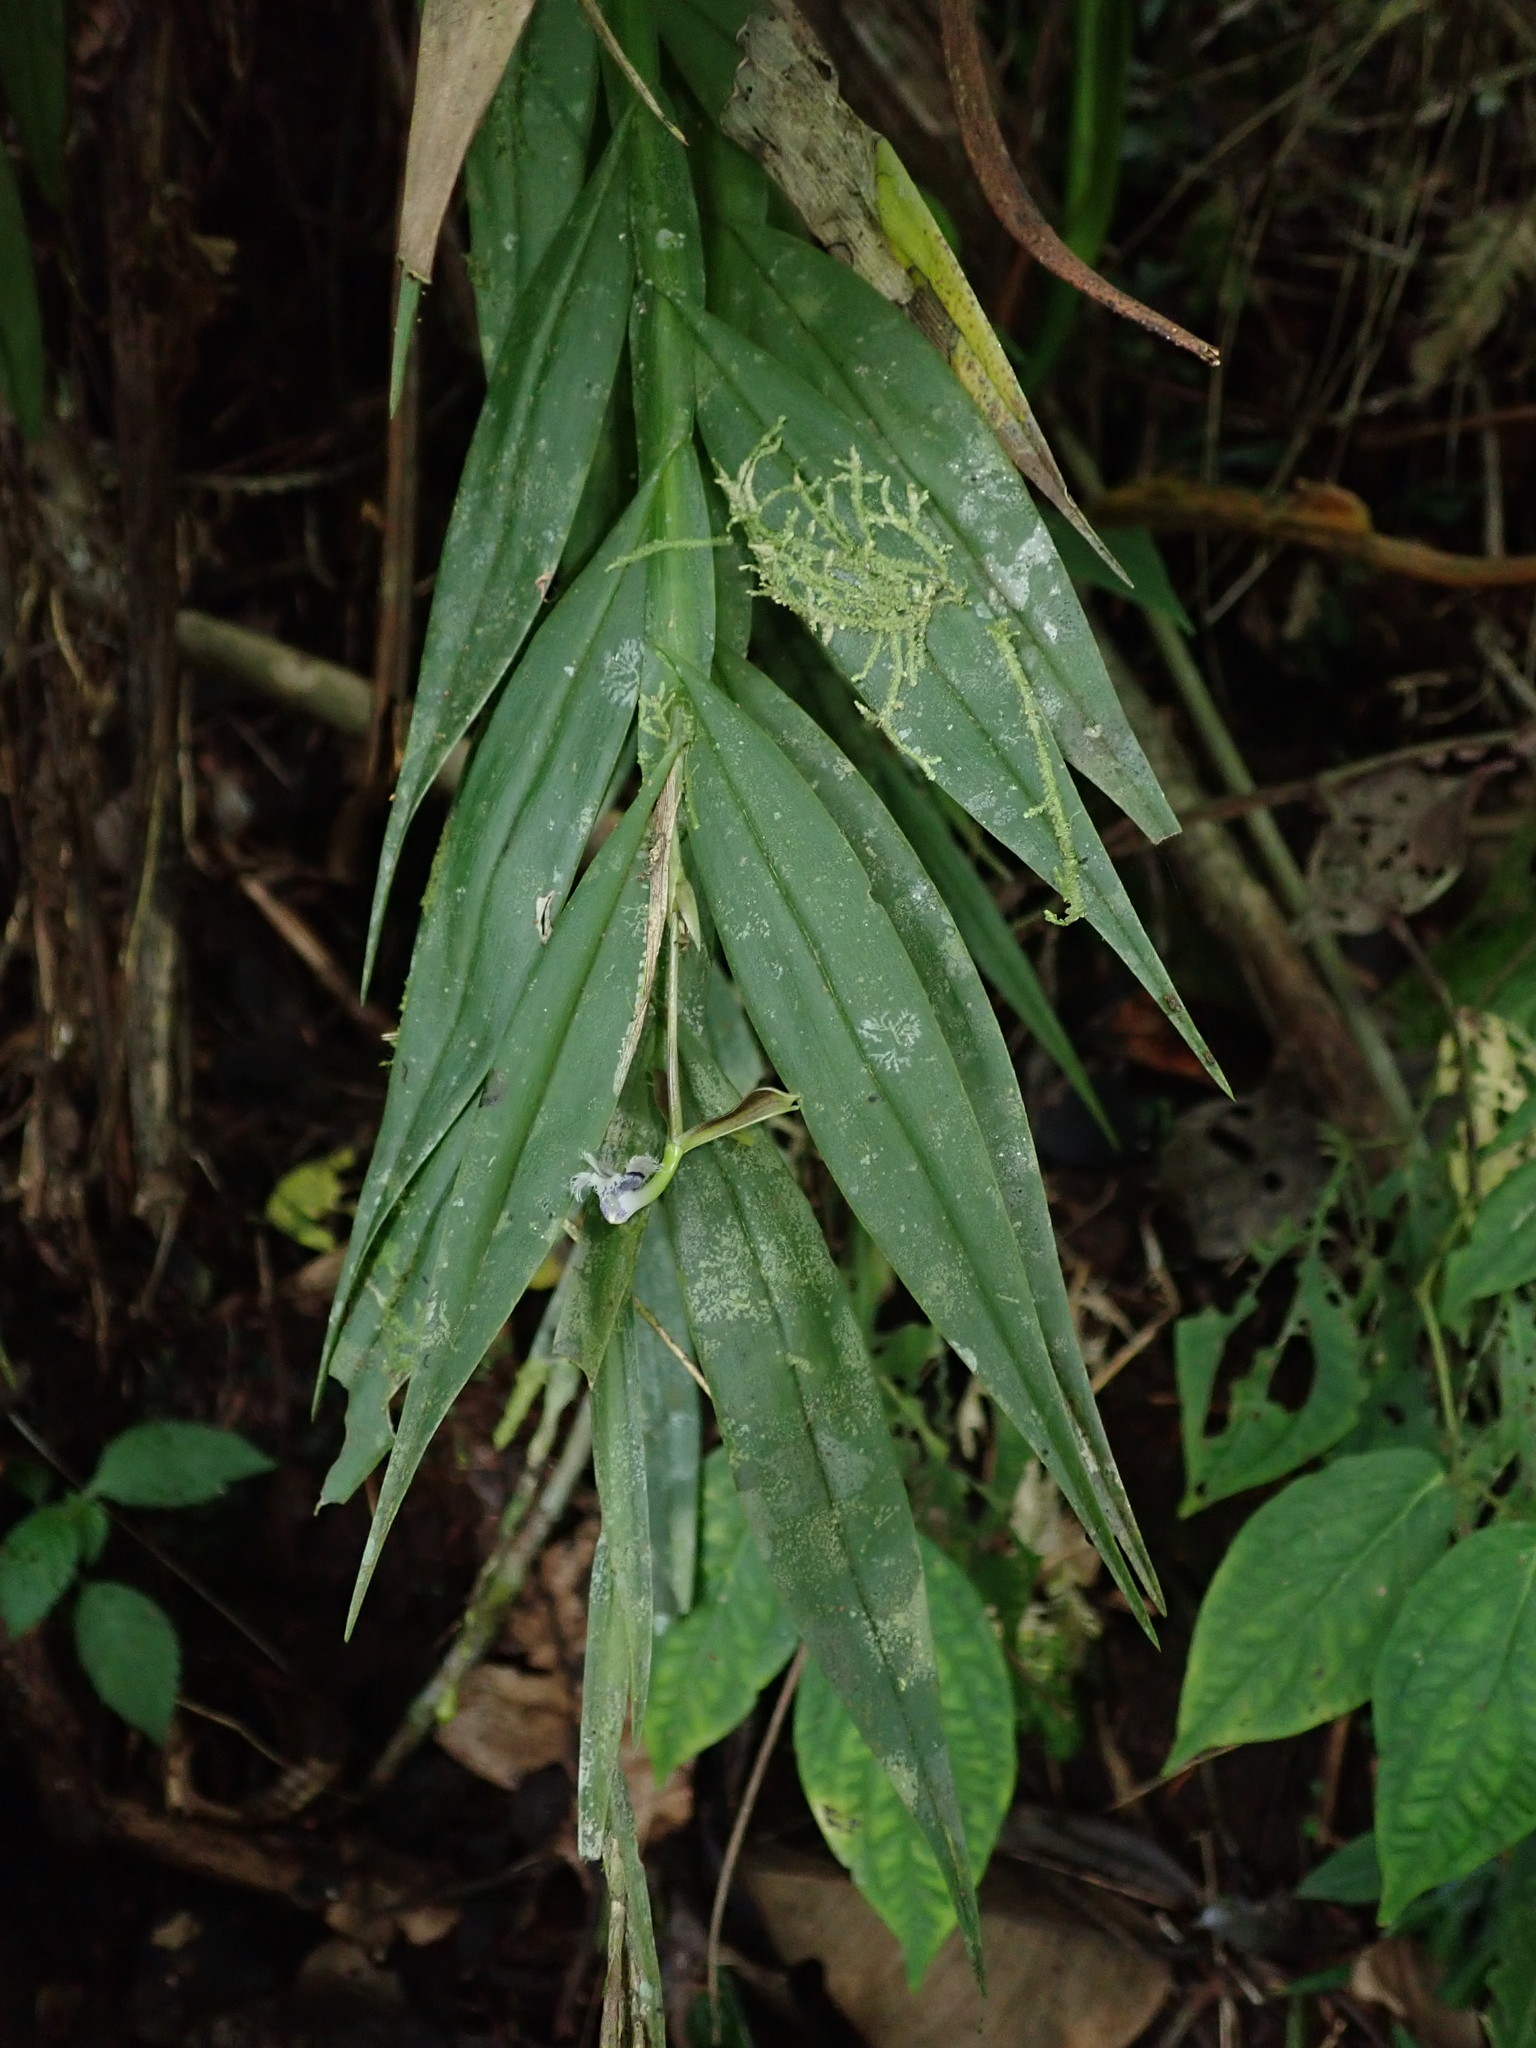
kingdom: Plantae
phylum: Tracheophyta
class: Liliopsida
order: Asparagales
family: Orchidaceae
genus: Epidendrum
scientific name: Epidendrum jatunsachanum
